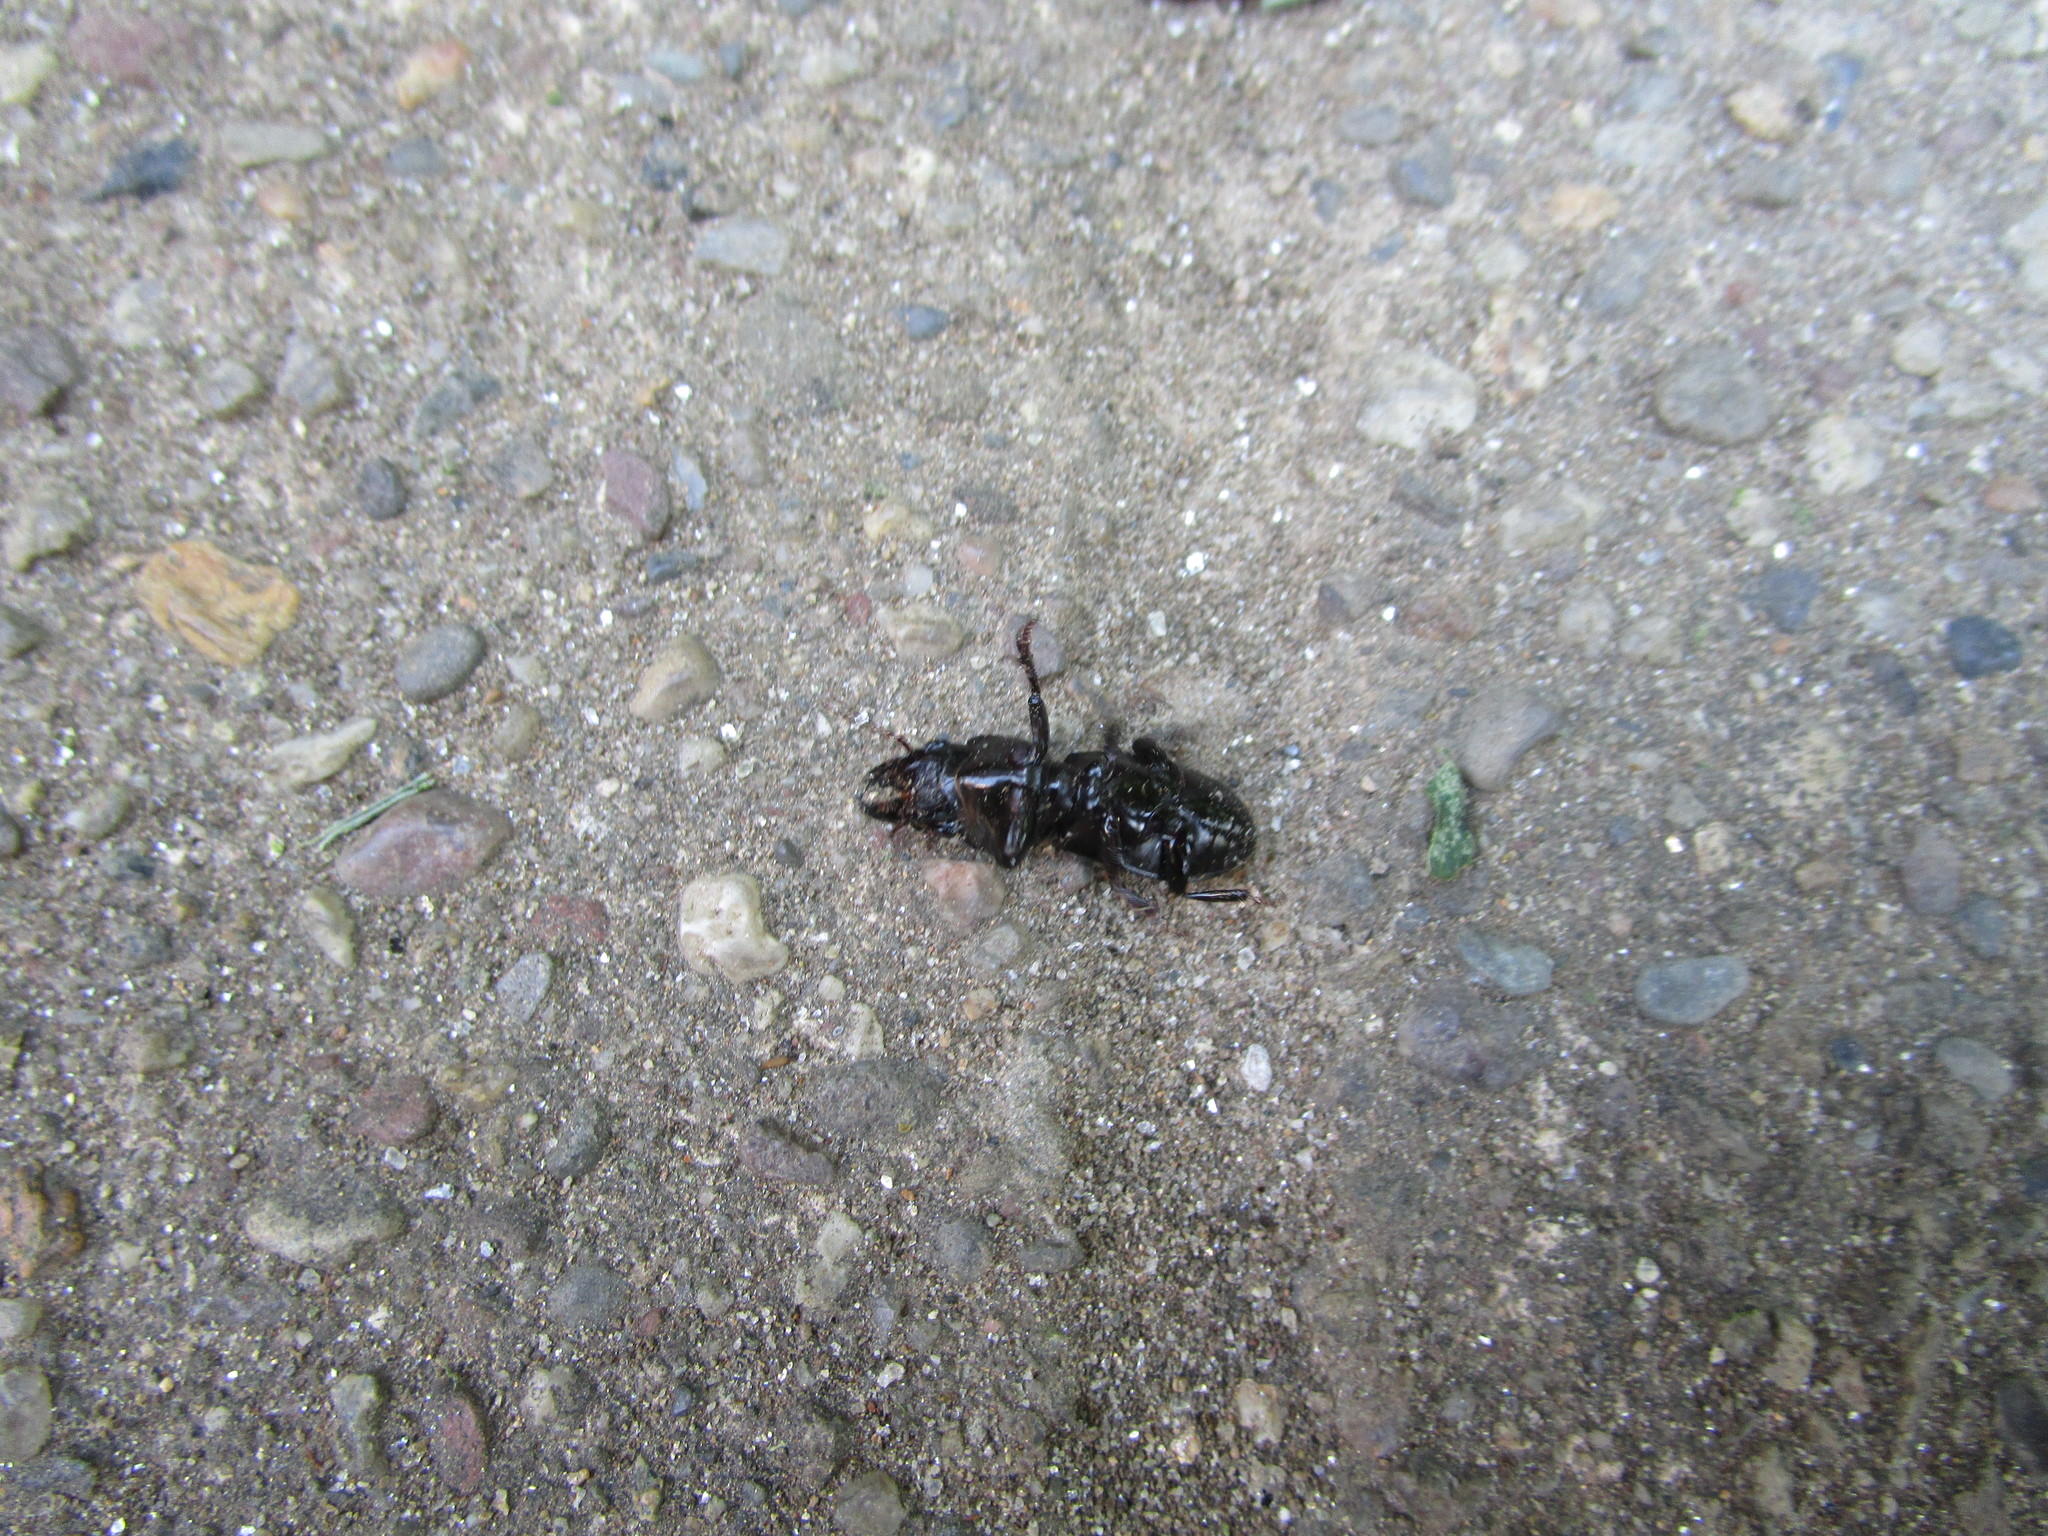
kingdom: Animalia
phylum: Arthropoda
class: Insecta
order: Coleoptera
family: Carabidae
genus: Scarites
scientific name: Scarites subterraneus
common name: Big-headed ground beetle
